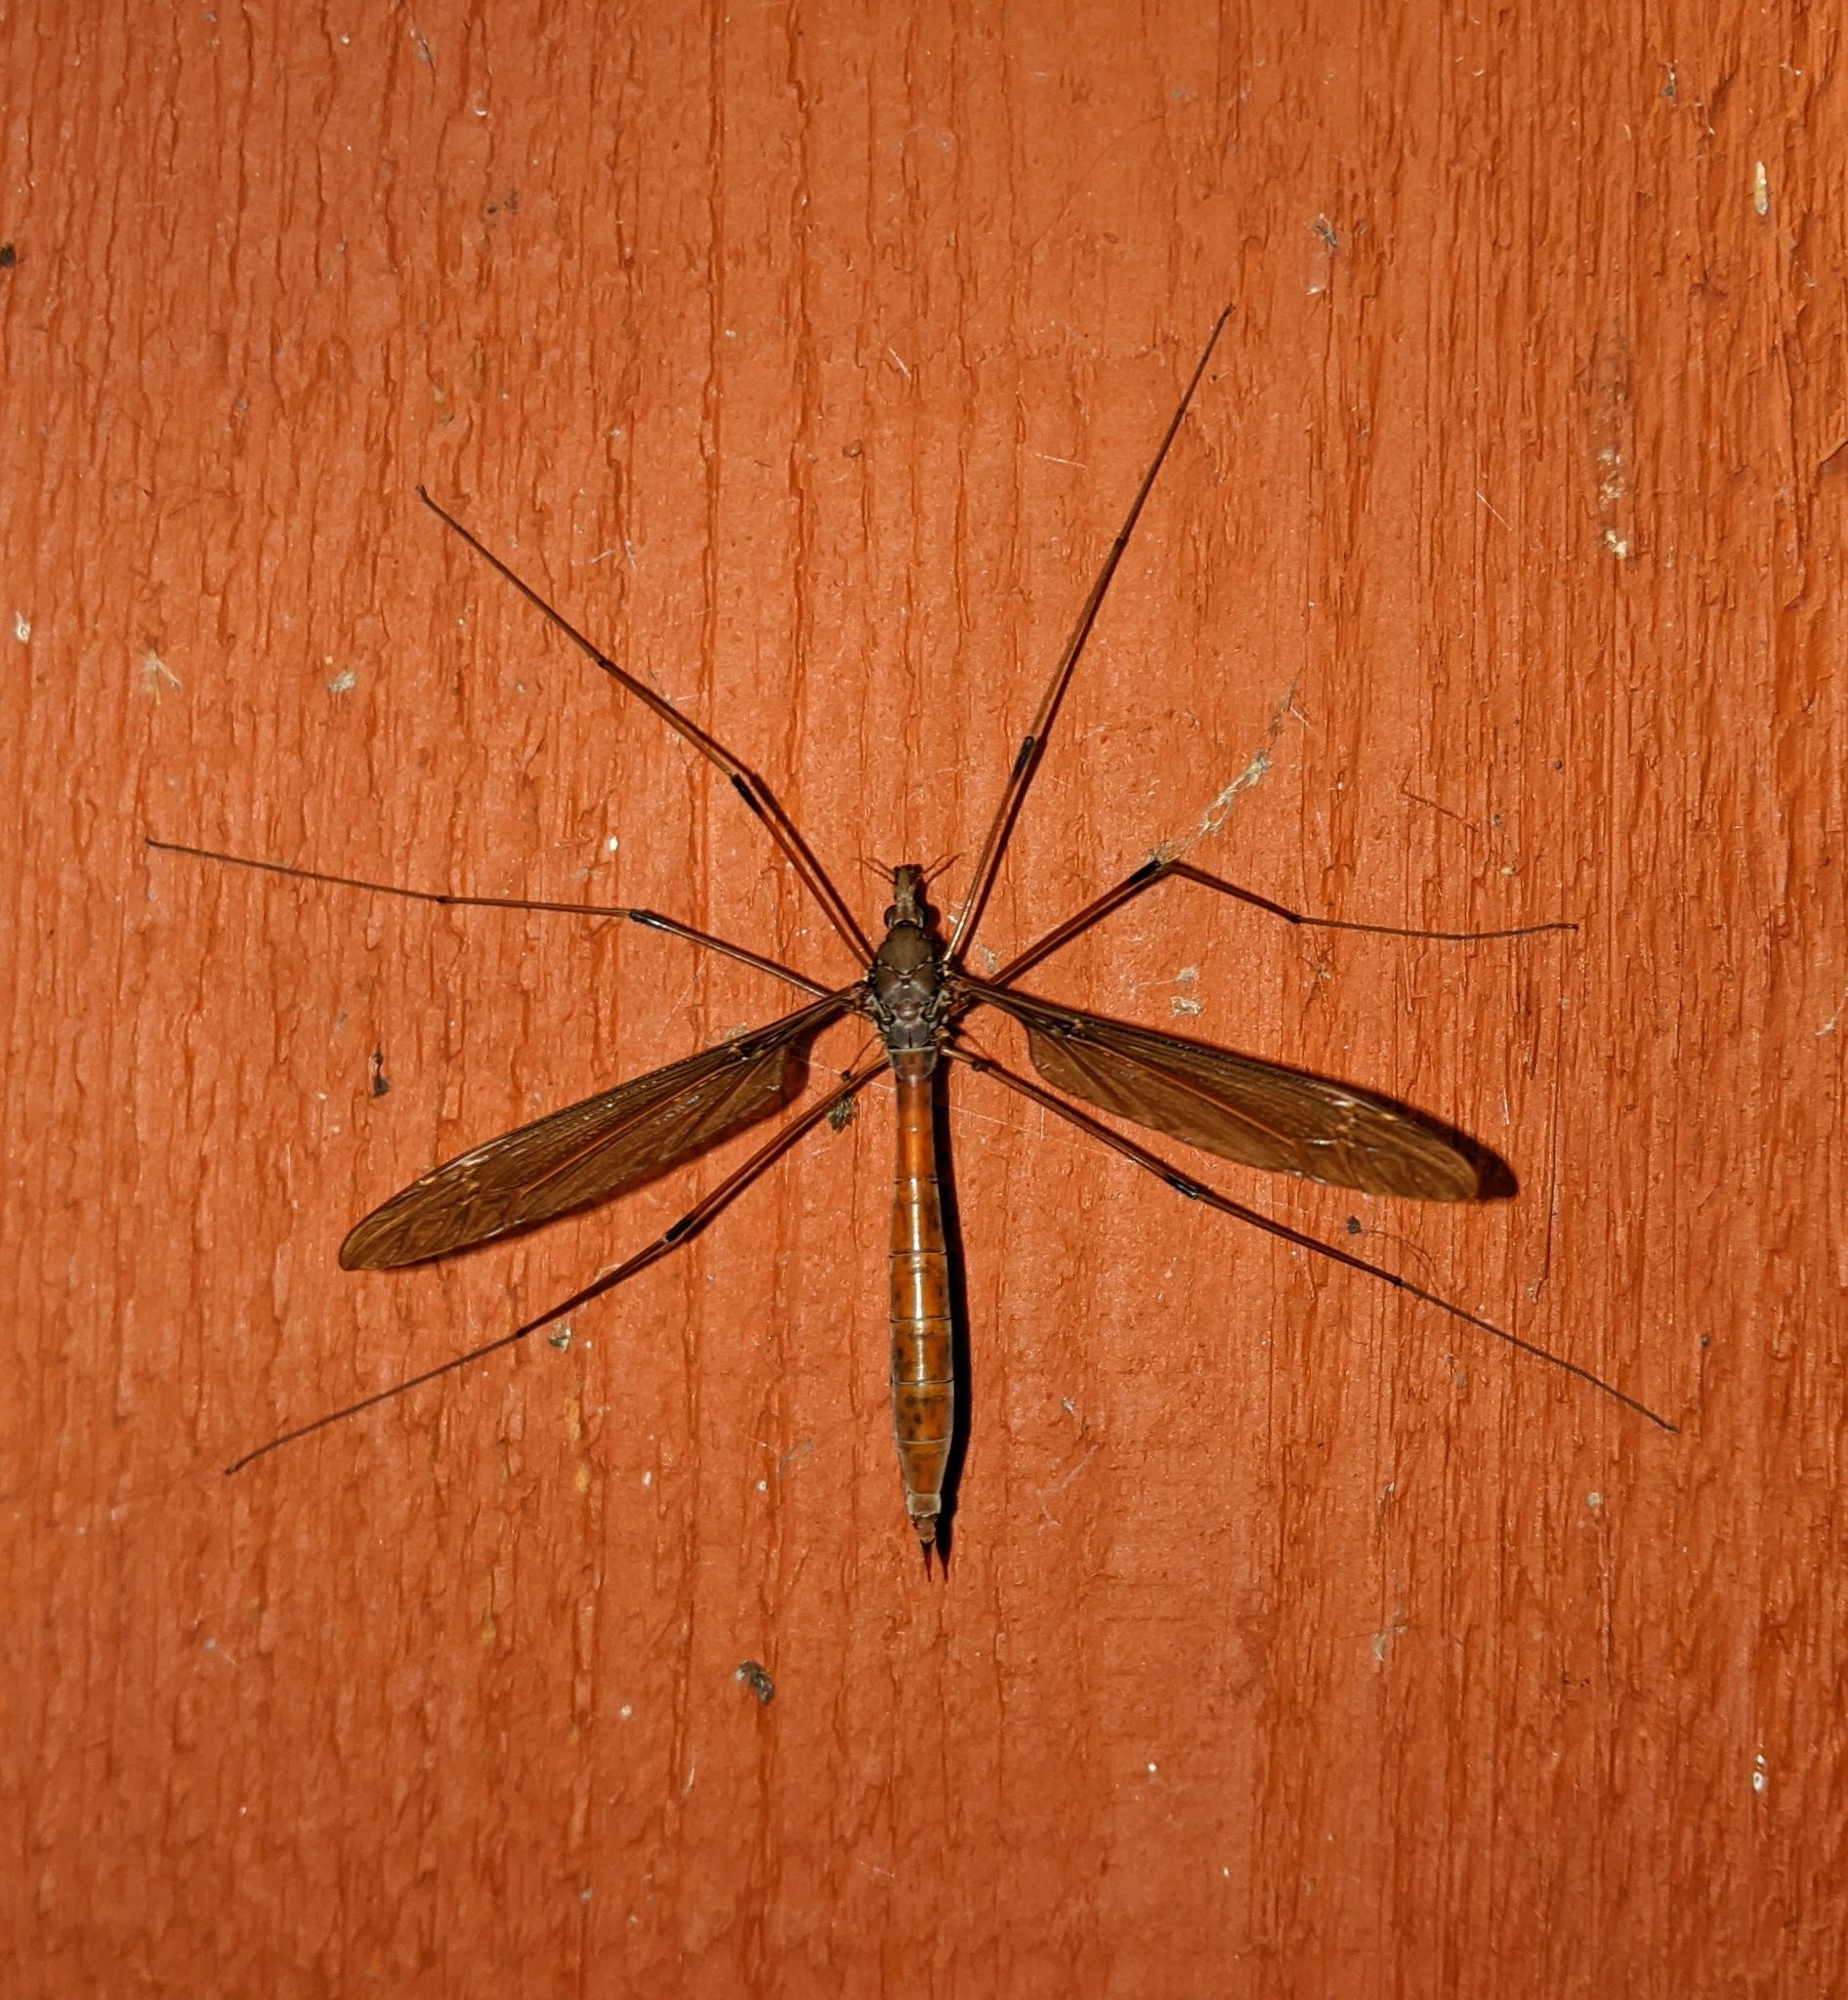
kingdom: Animalia
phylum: Arthropoda
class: Insecta
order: Diptera
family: Tipulidae
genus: Holorusia
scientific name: Holorusia hespera
